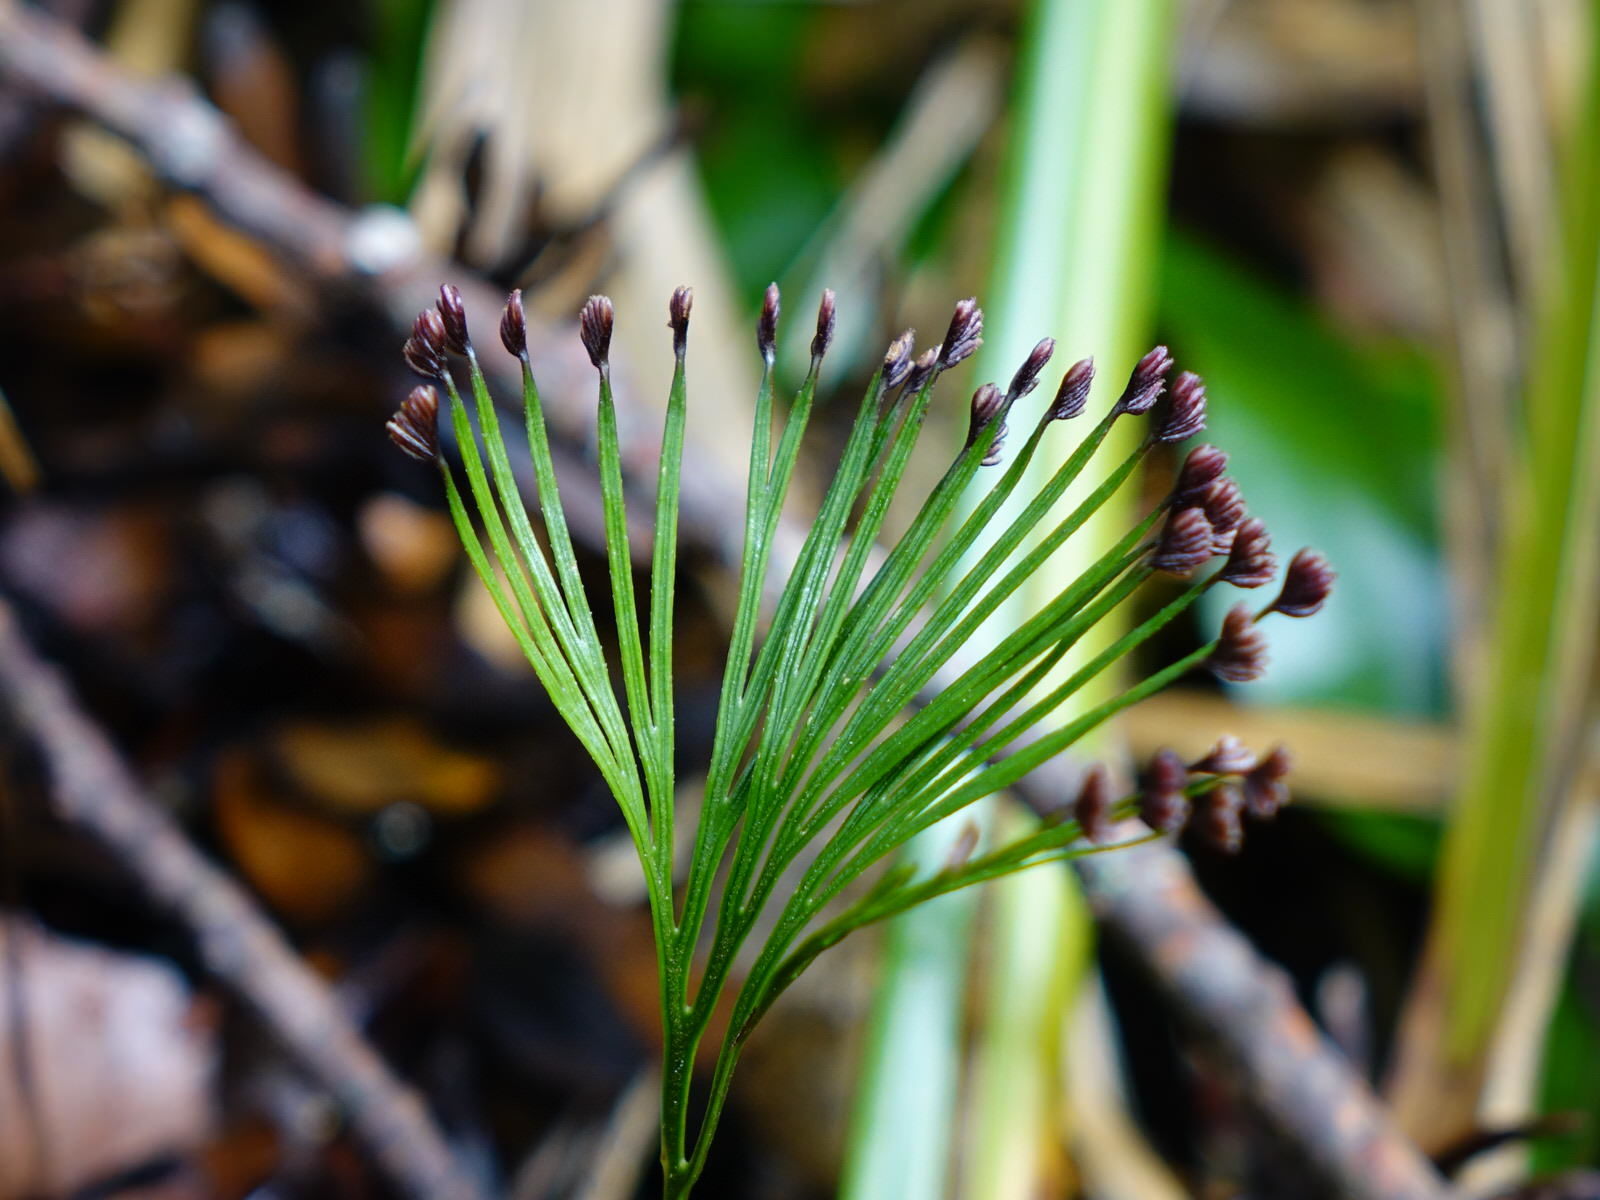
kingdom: Plantae
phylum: Tracheophyta
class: Polypodiopsida
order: Schizaeales
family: Schizaeaceae
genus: Schizaea
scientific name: Schizaea dichotoma
